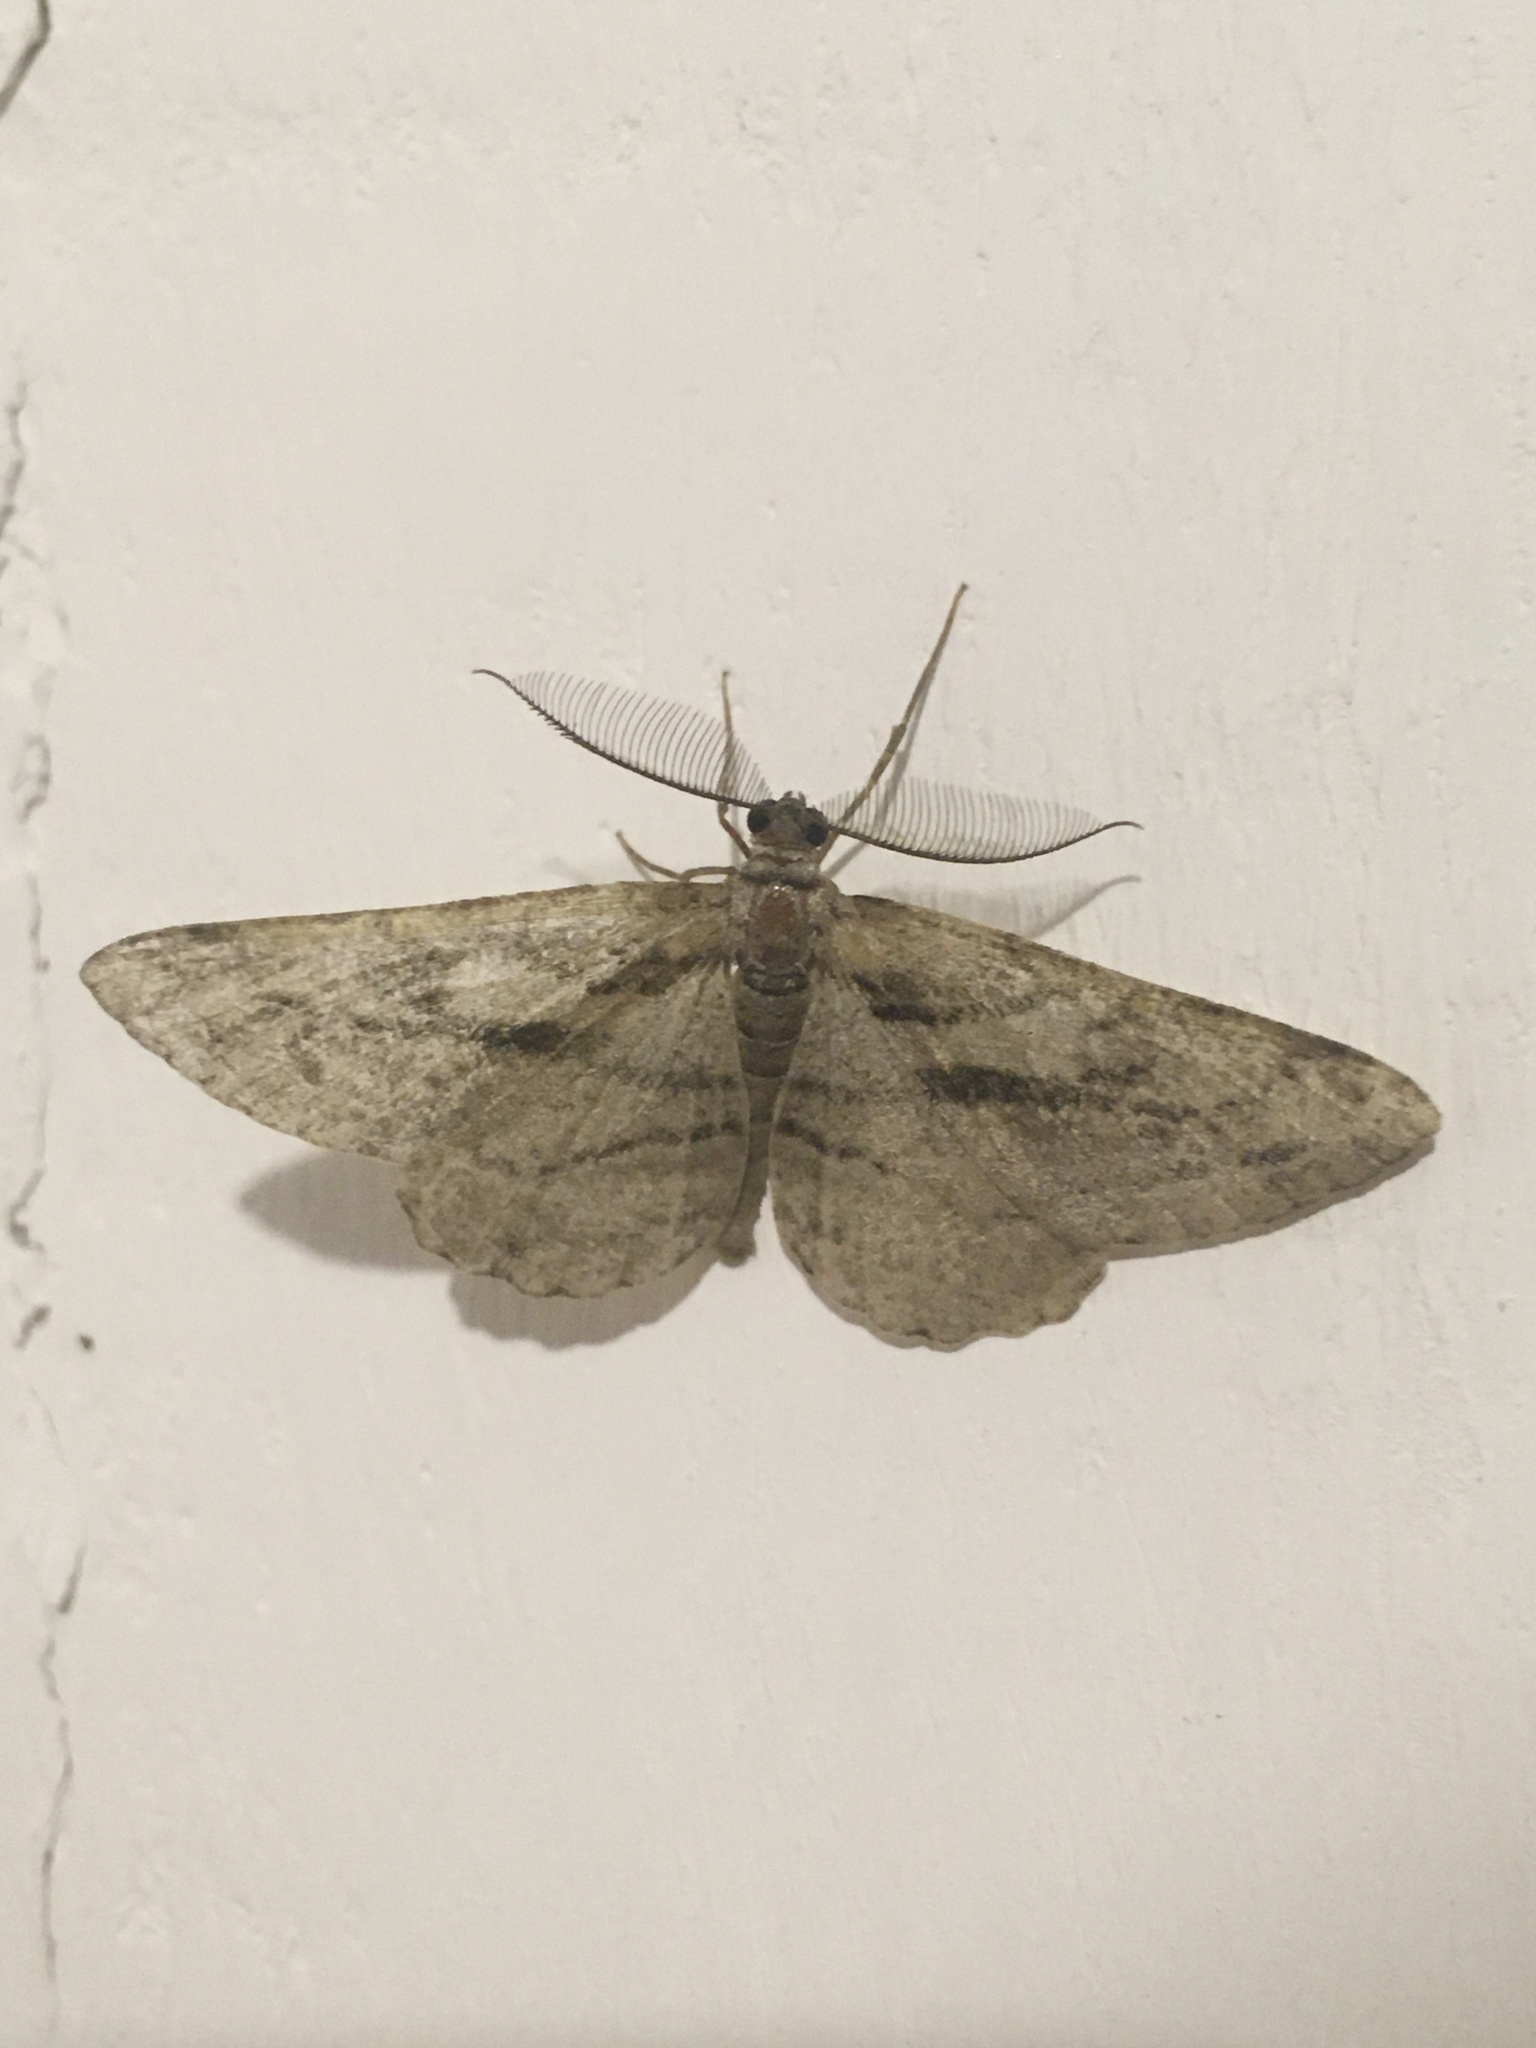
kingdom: Animalia
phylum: Arthropoda
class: Insecta
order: Lepidoptera
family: Geometridae
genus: Peribatodes
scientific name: Peribatodes correptaria
